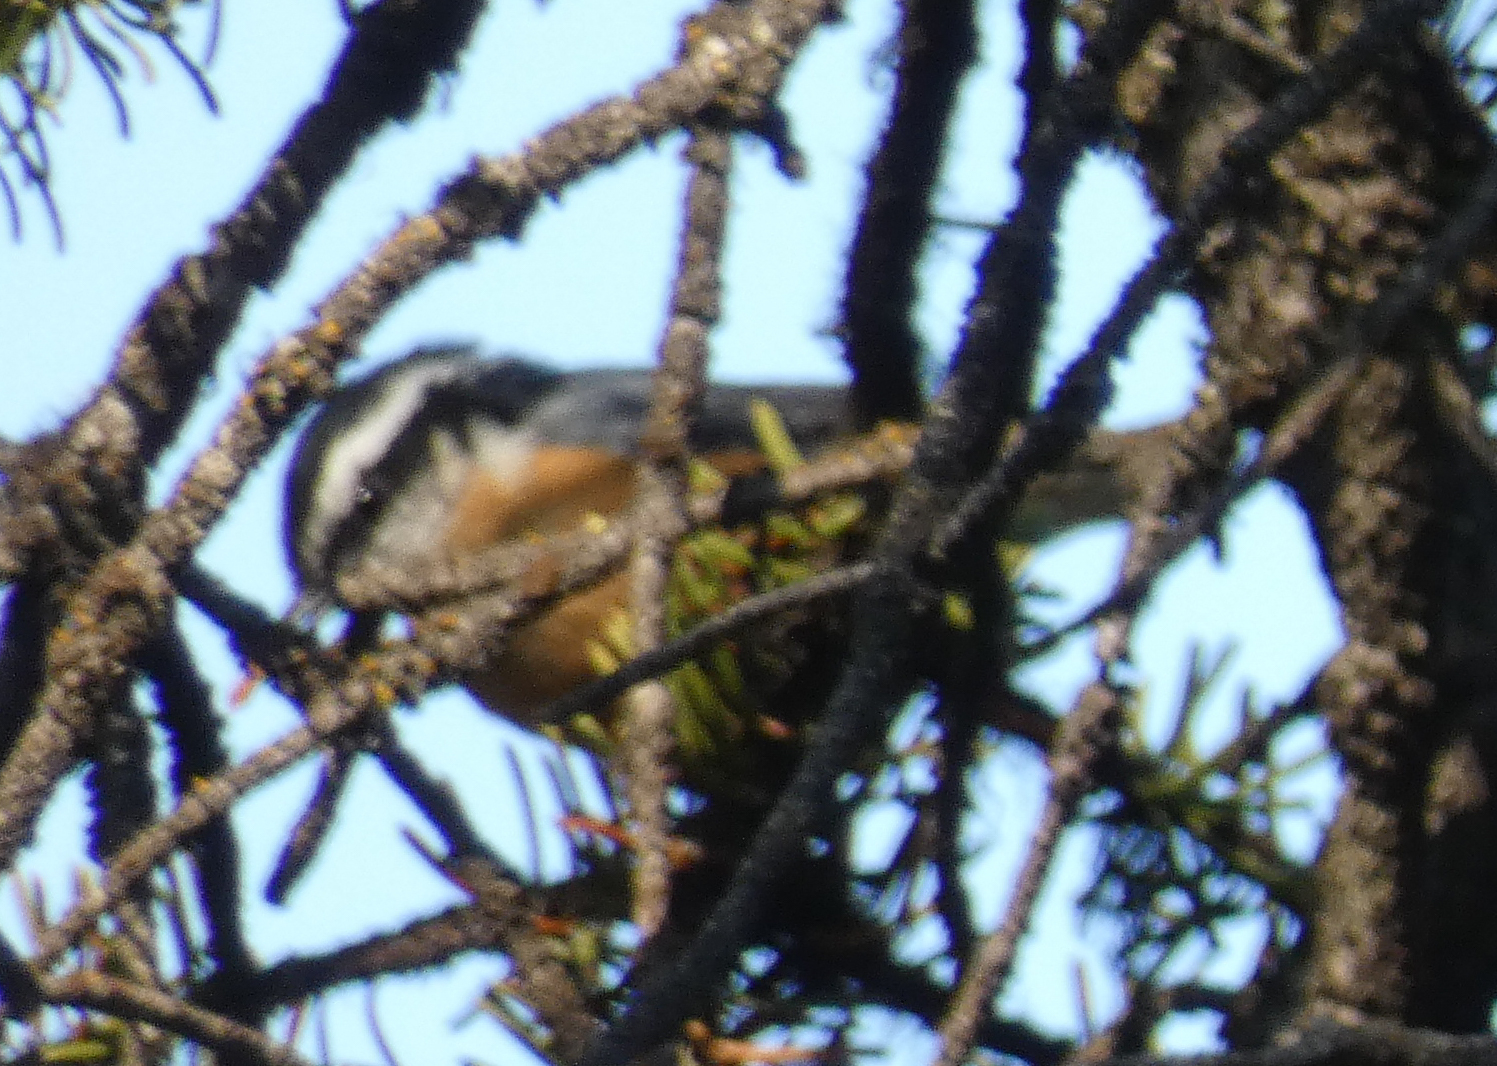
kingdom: Animalia
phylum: Chordata
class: Aves
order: Passeriformes
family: Sittidae
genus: Sitta
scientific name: Sitta canadensis
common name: Red-breasted nuthatch
